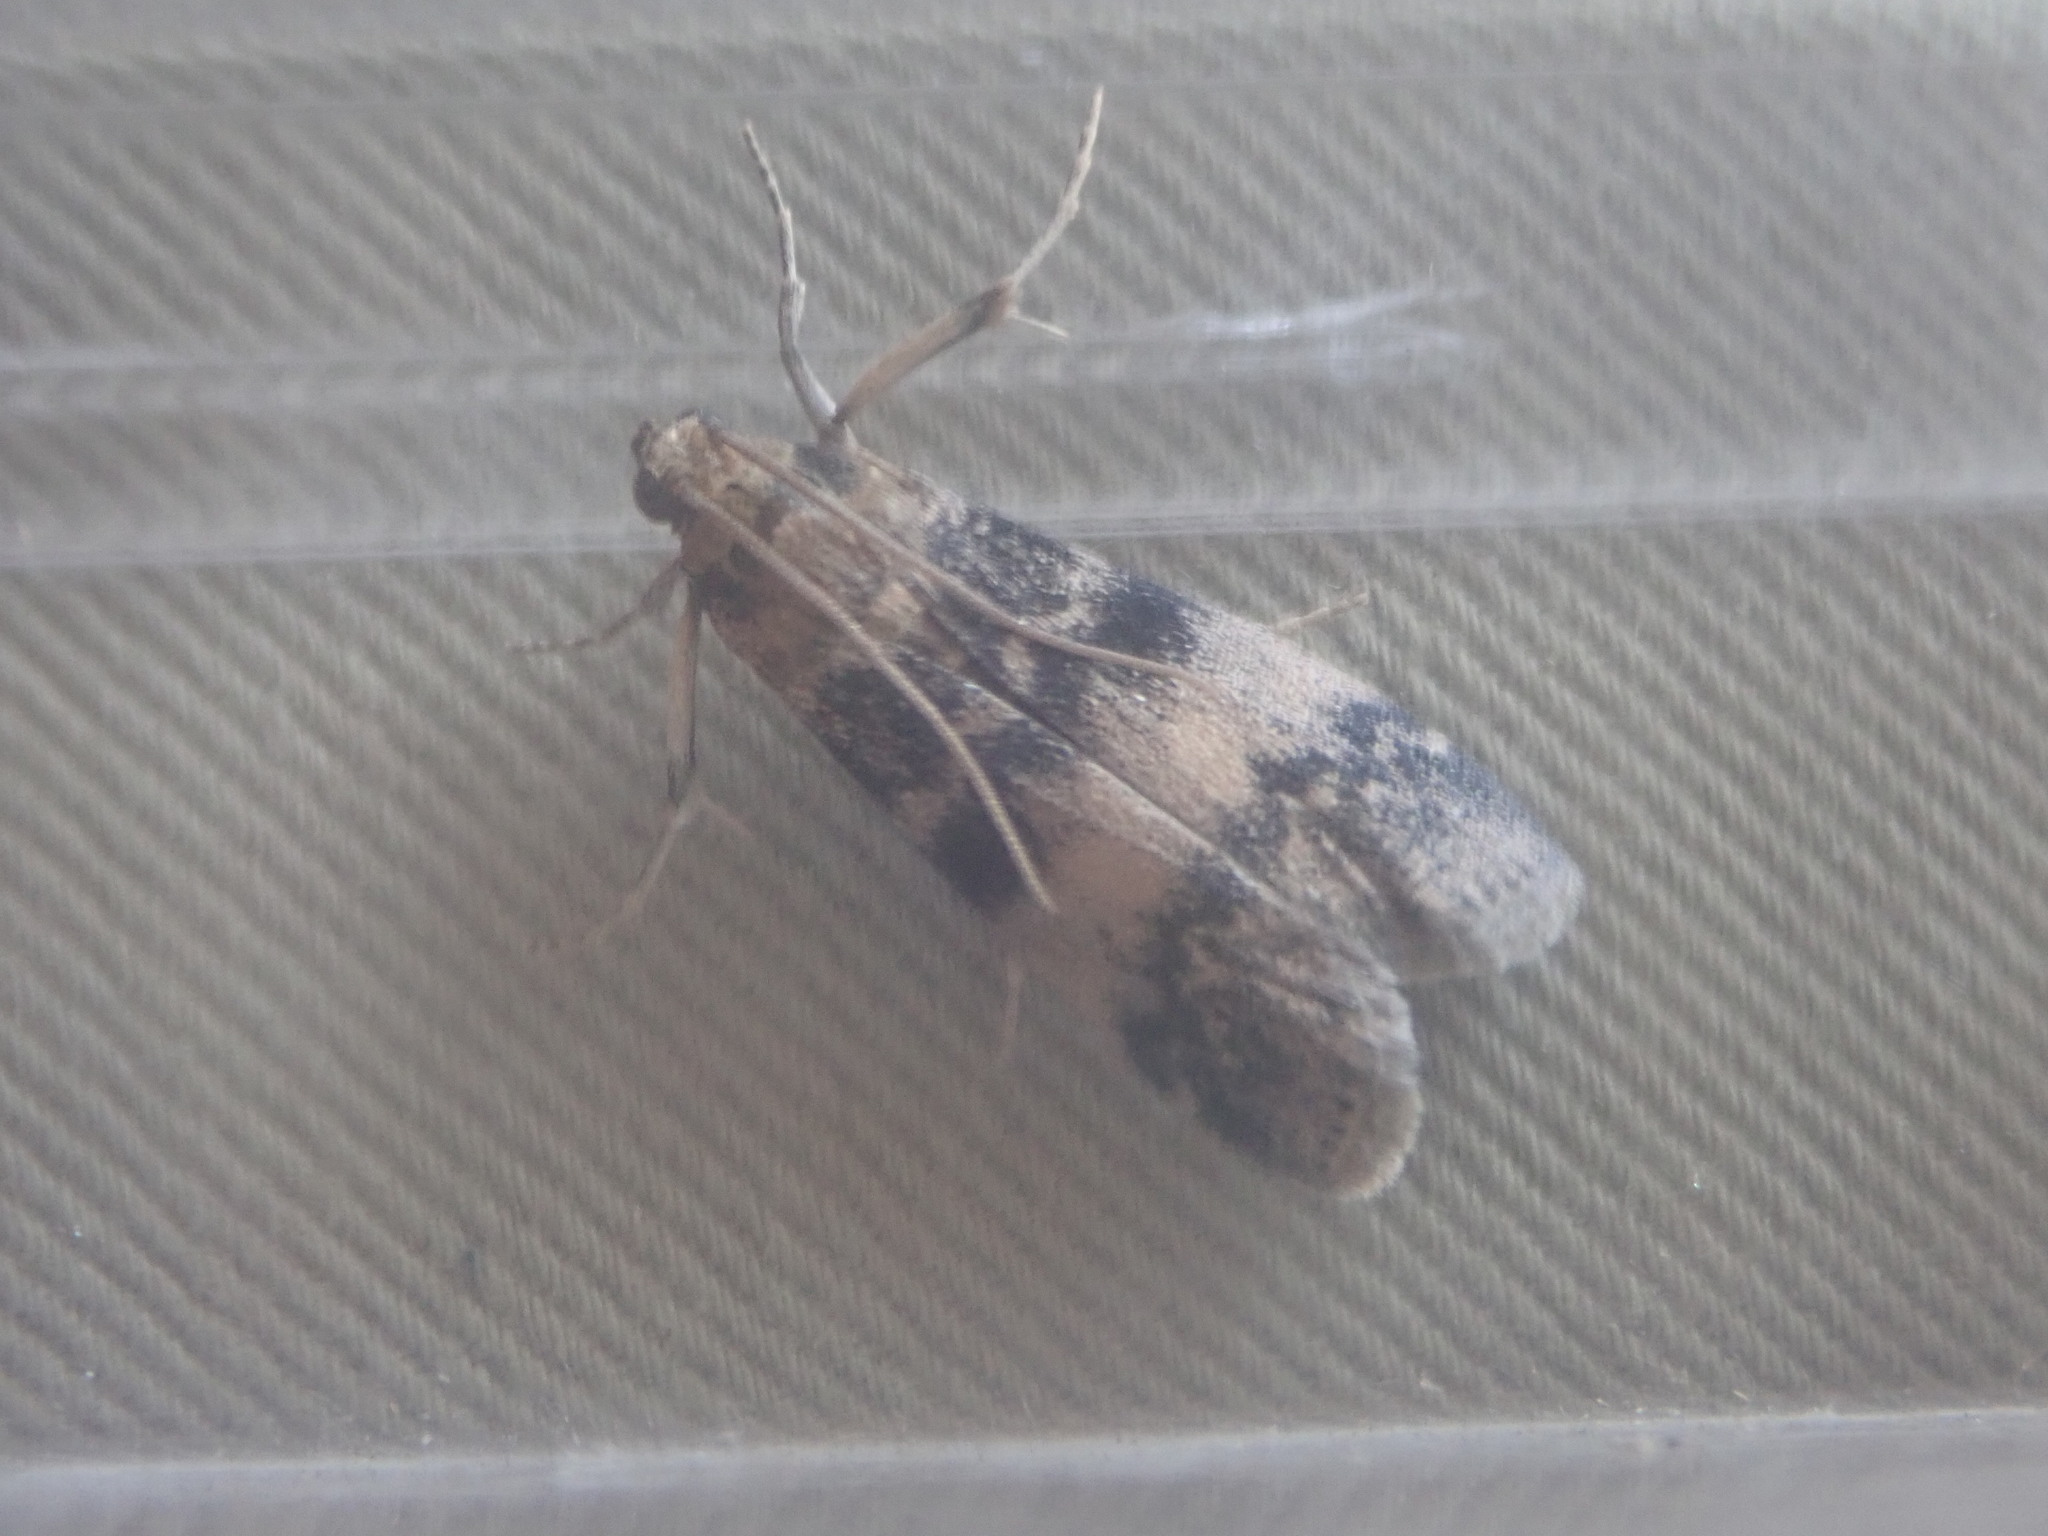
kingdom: Animalia
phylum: Arthropoda
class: Insecta
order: Lepidoptera
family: Pyralidae
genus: Euzophera
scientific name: Euzophera pinguis
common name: Ash-bark knot-horn
